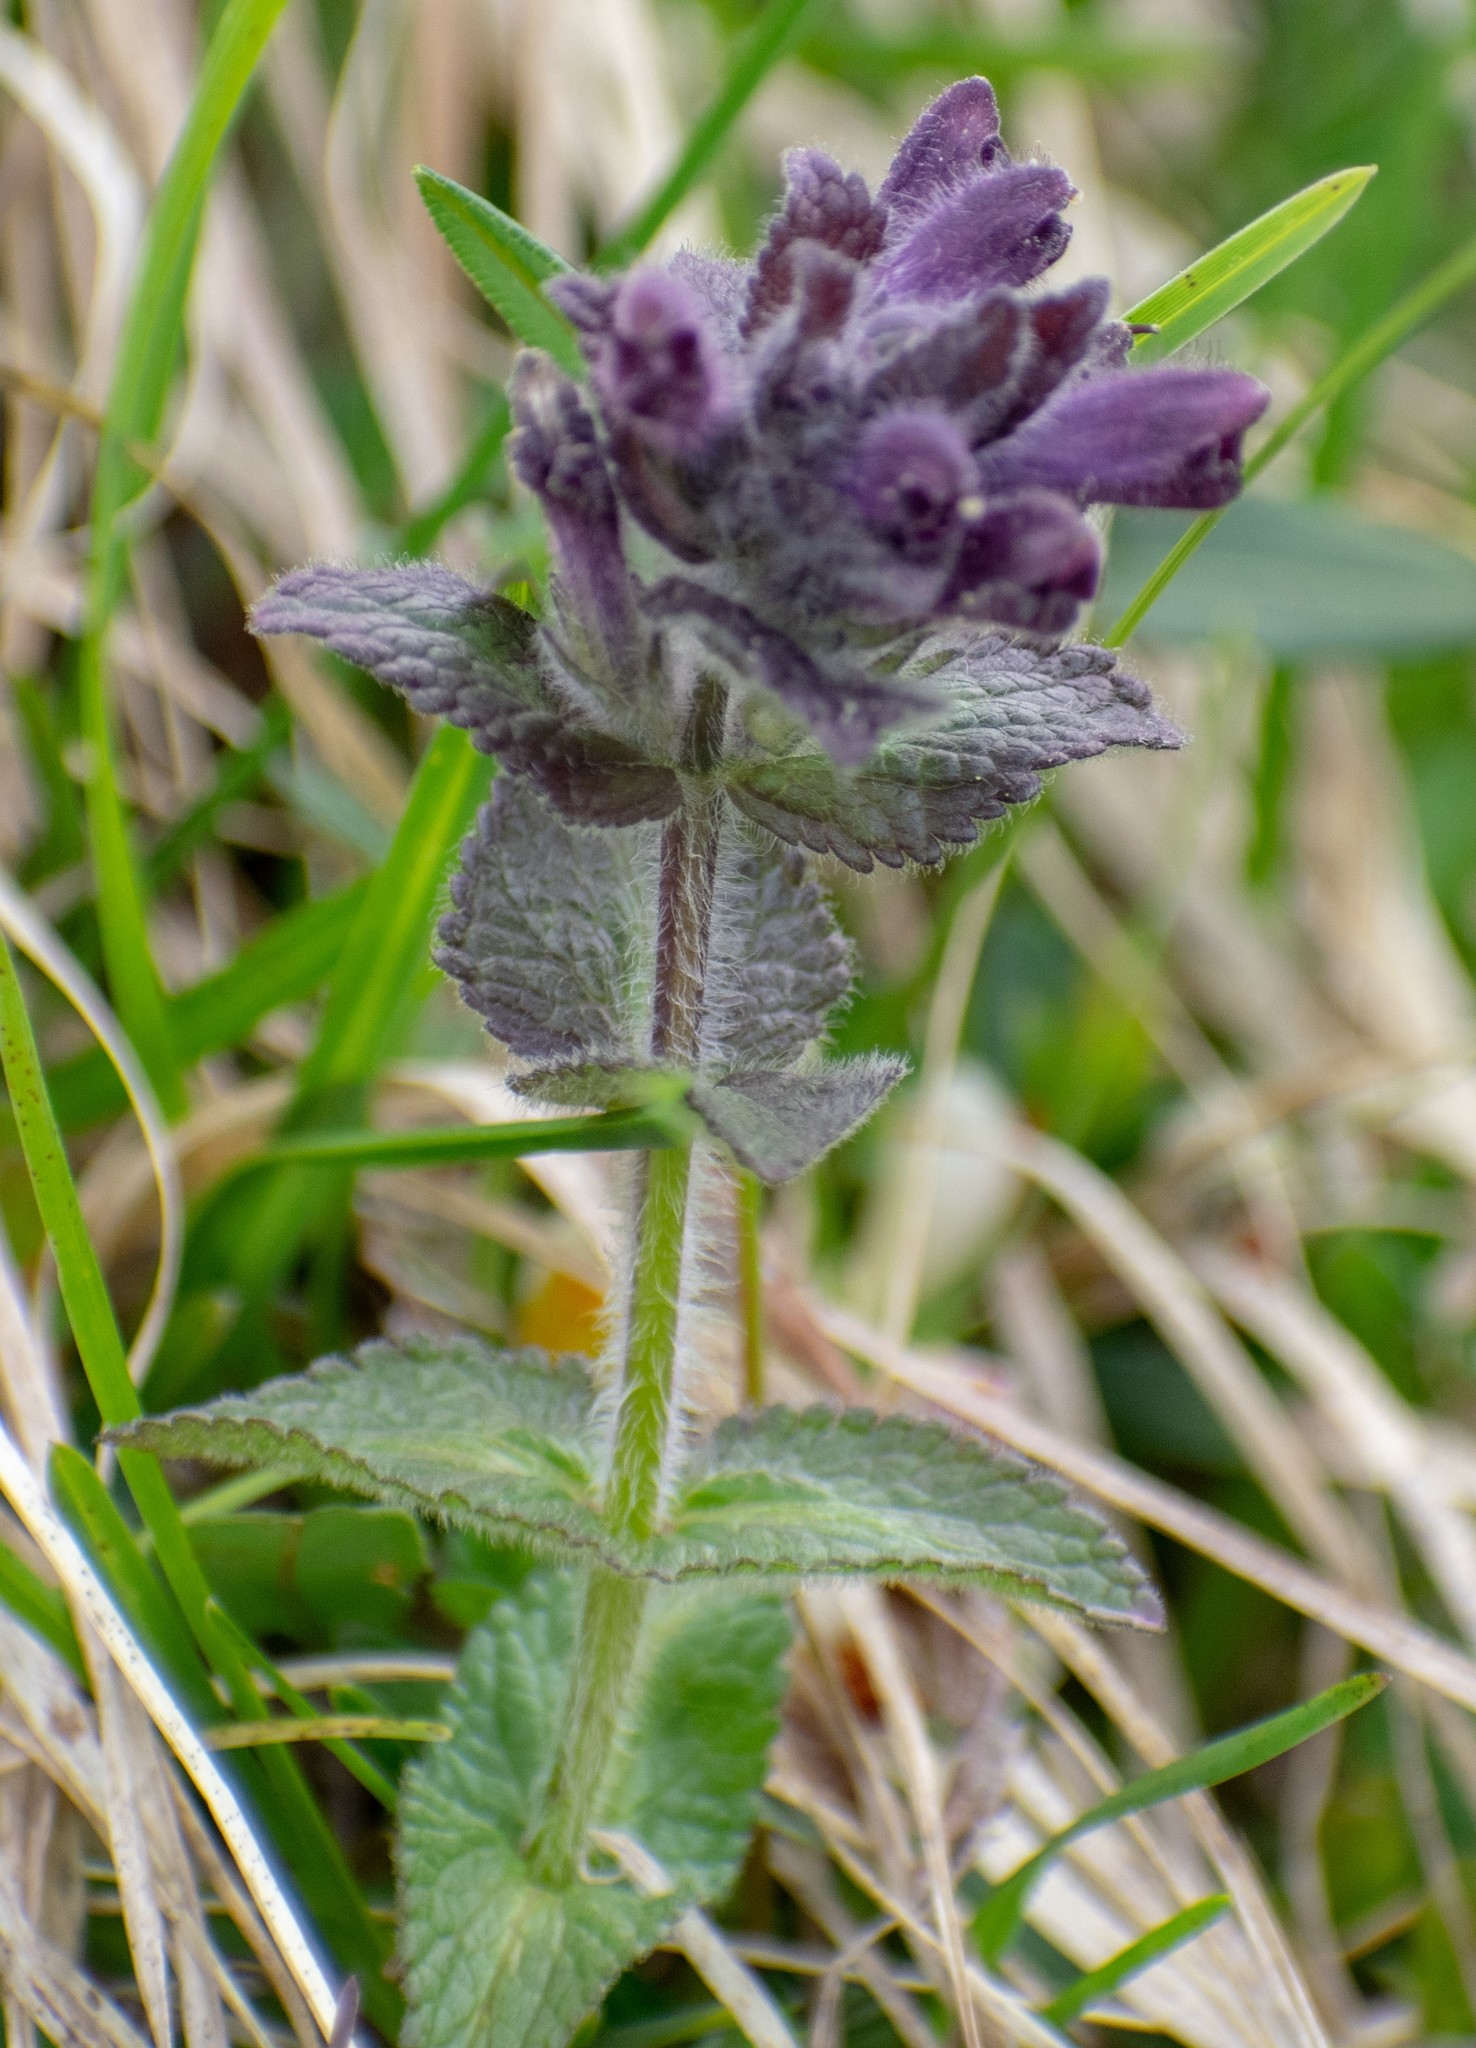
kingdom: Plantae
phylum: Tracheophyta
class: Magnoliopsida
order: Lamiales
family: Orobanchaceae
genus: Bartsia
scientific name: Bartsia alpina
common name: Alpine bartsia
